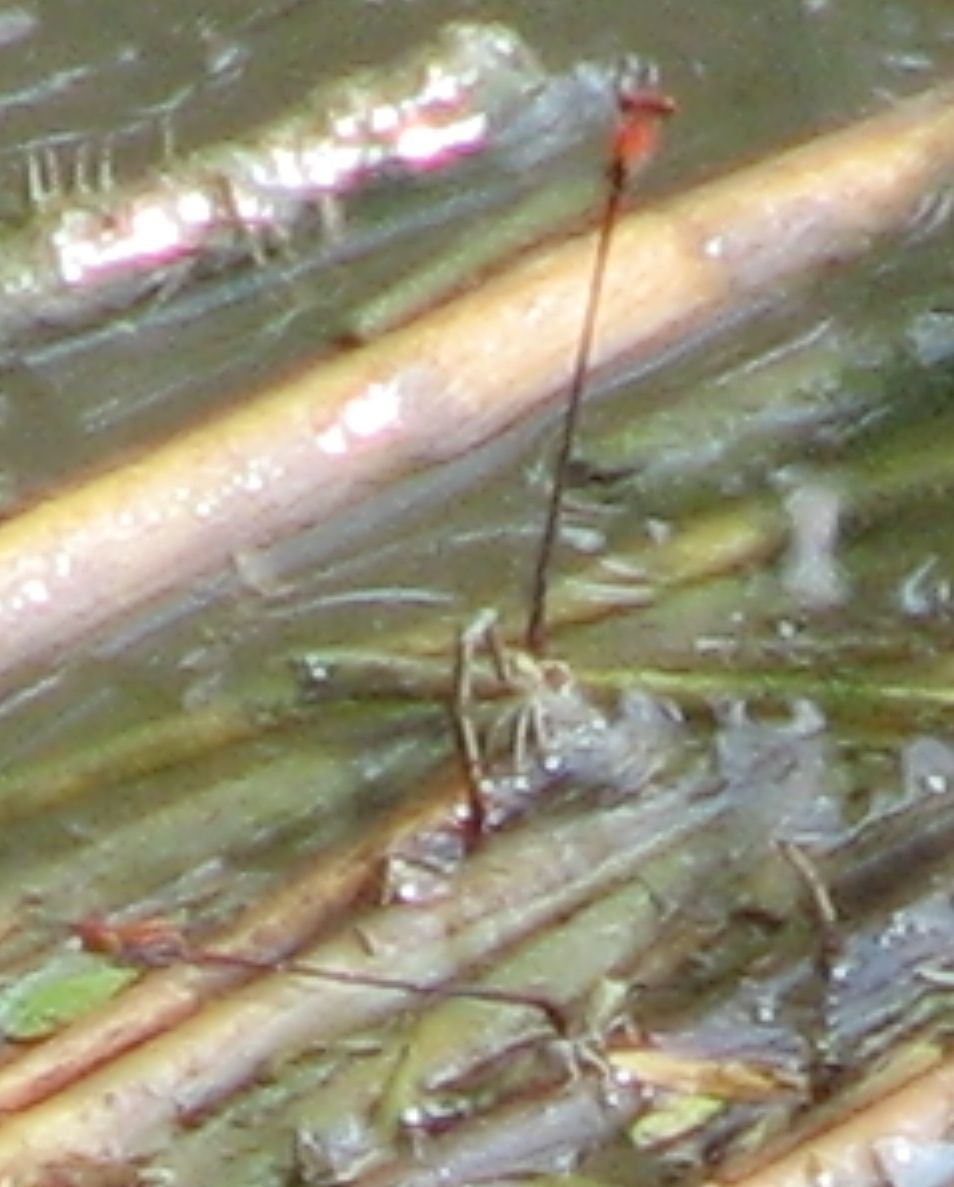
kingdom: Animalia
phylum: Arthropoda
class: Insecta
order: Odonata
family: Coenagrionidae
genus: Neoneura
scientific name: Neoneura amelia
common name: Amelia’s threadtail
